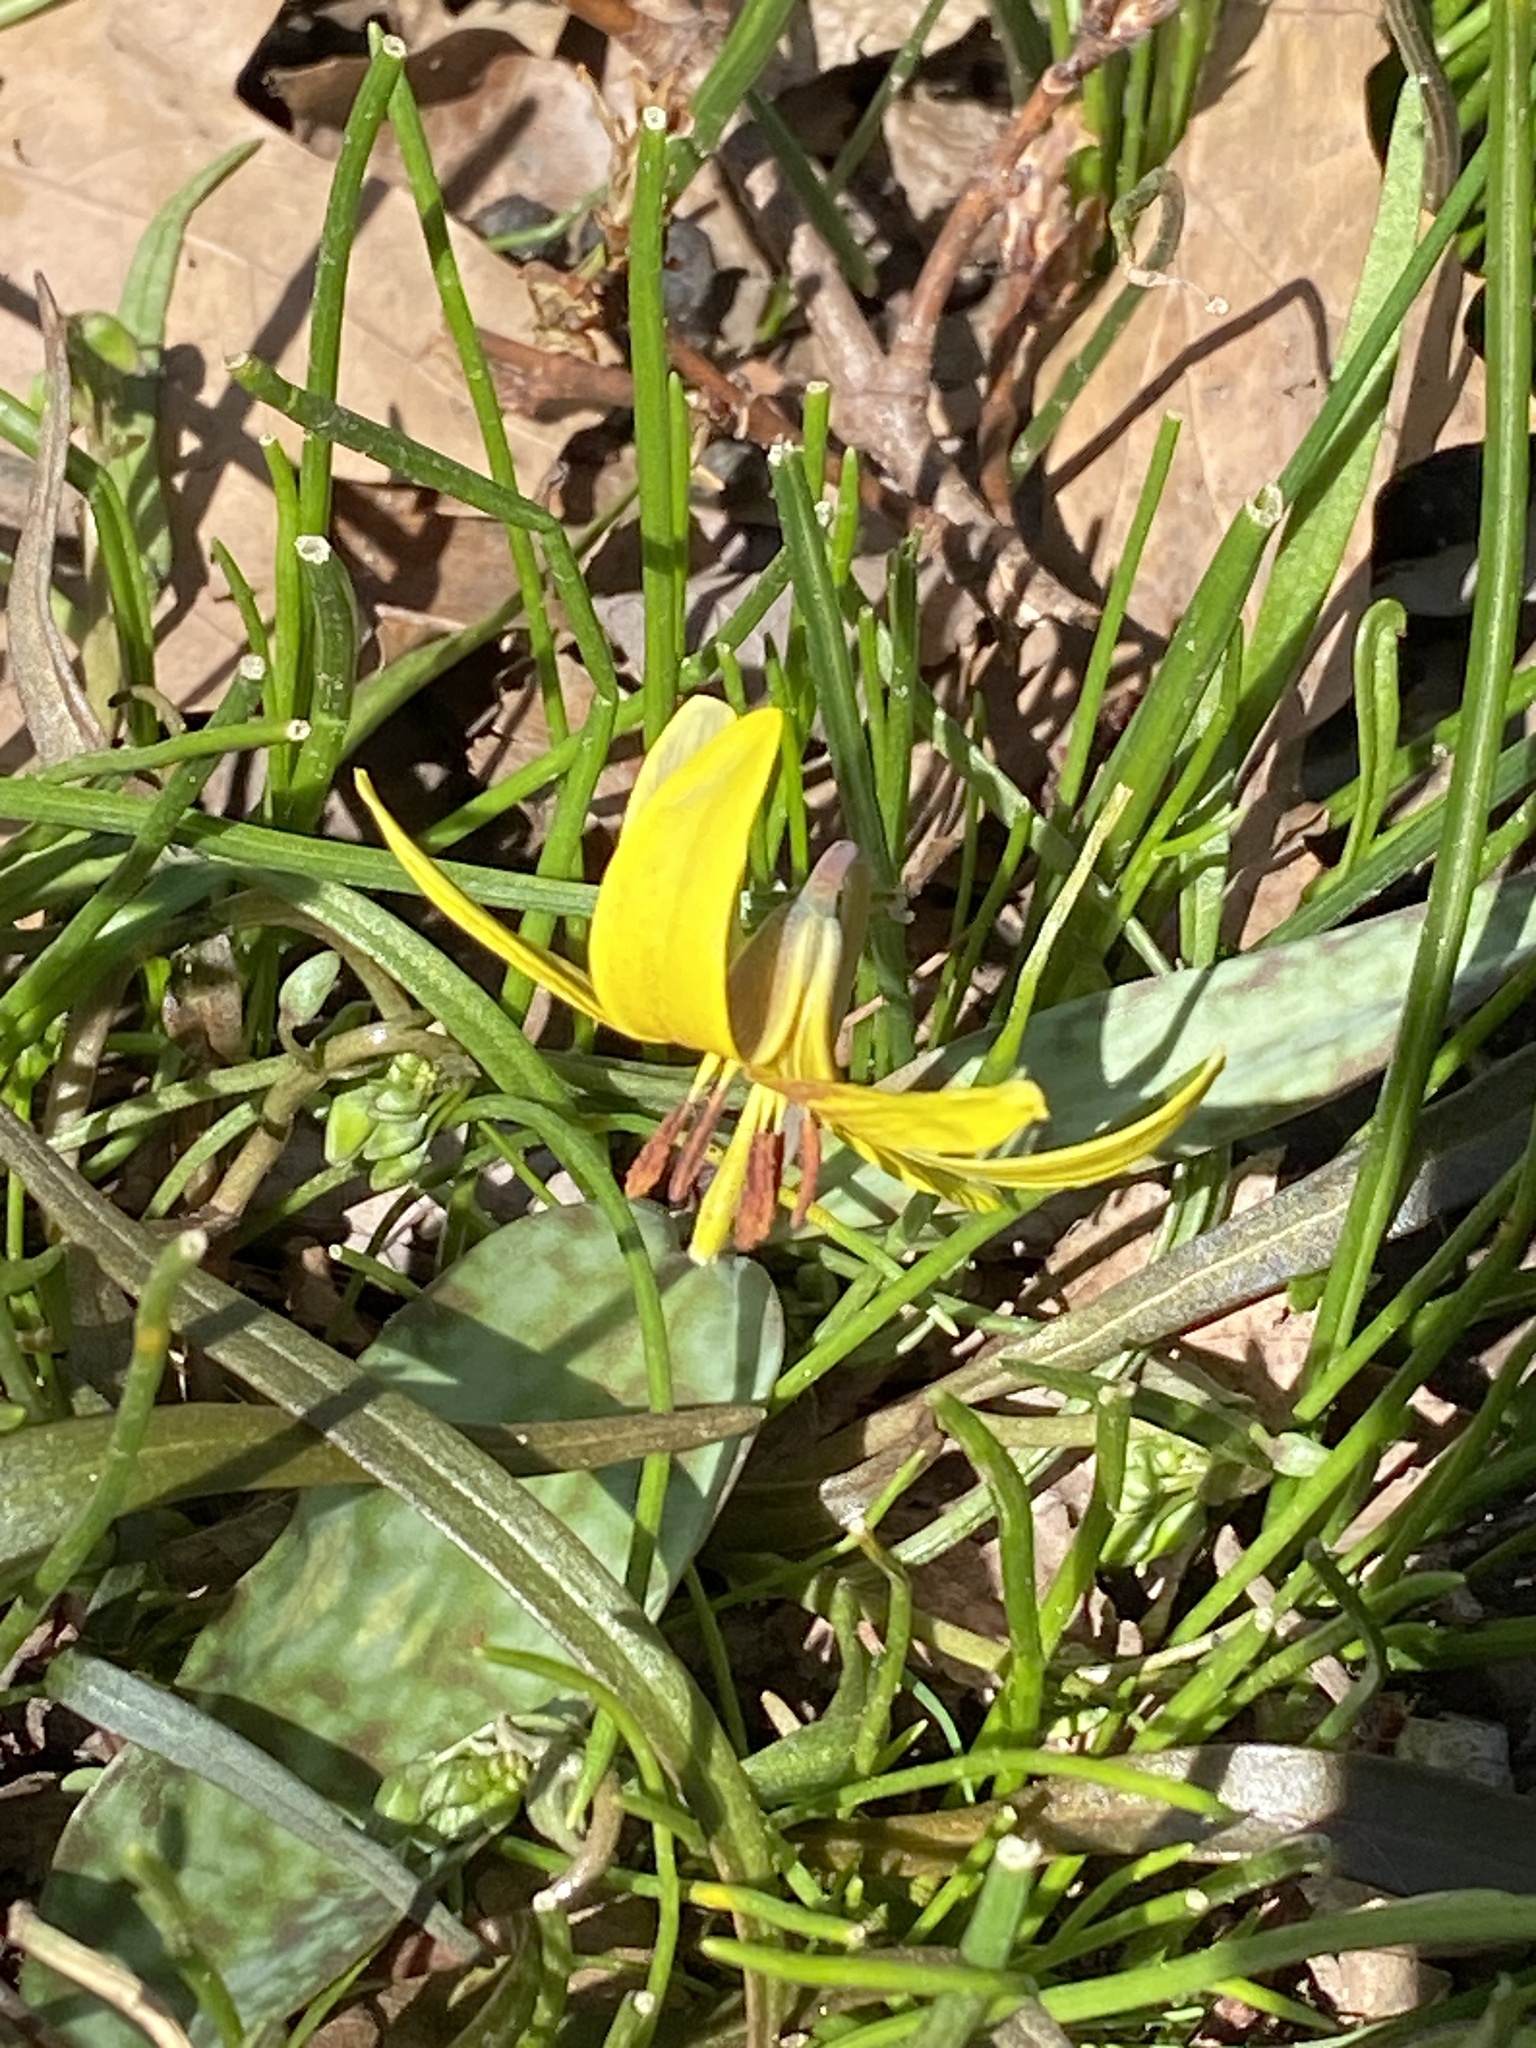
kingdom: Plantae
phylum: Tracheophyta
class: Liliopsida
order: Liliales
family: Liliaceae
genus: Erythronium
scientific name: Erythronium americanum
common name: Yellow adder's-tongue
